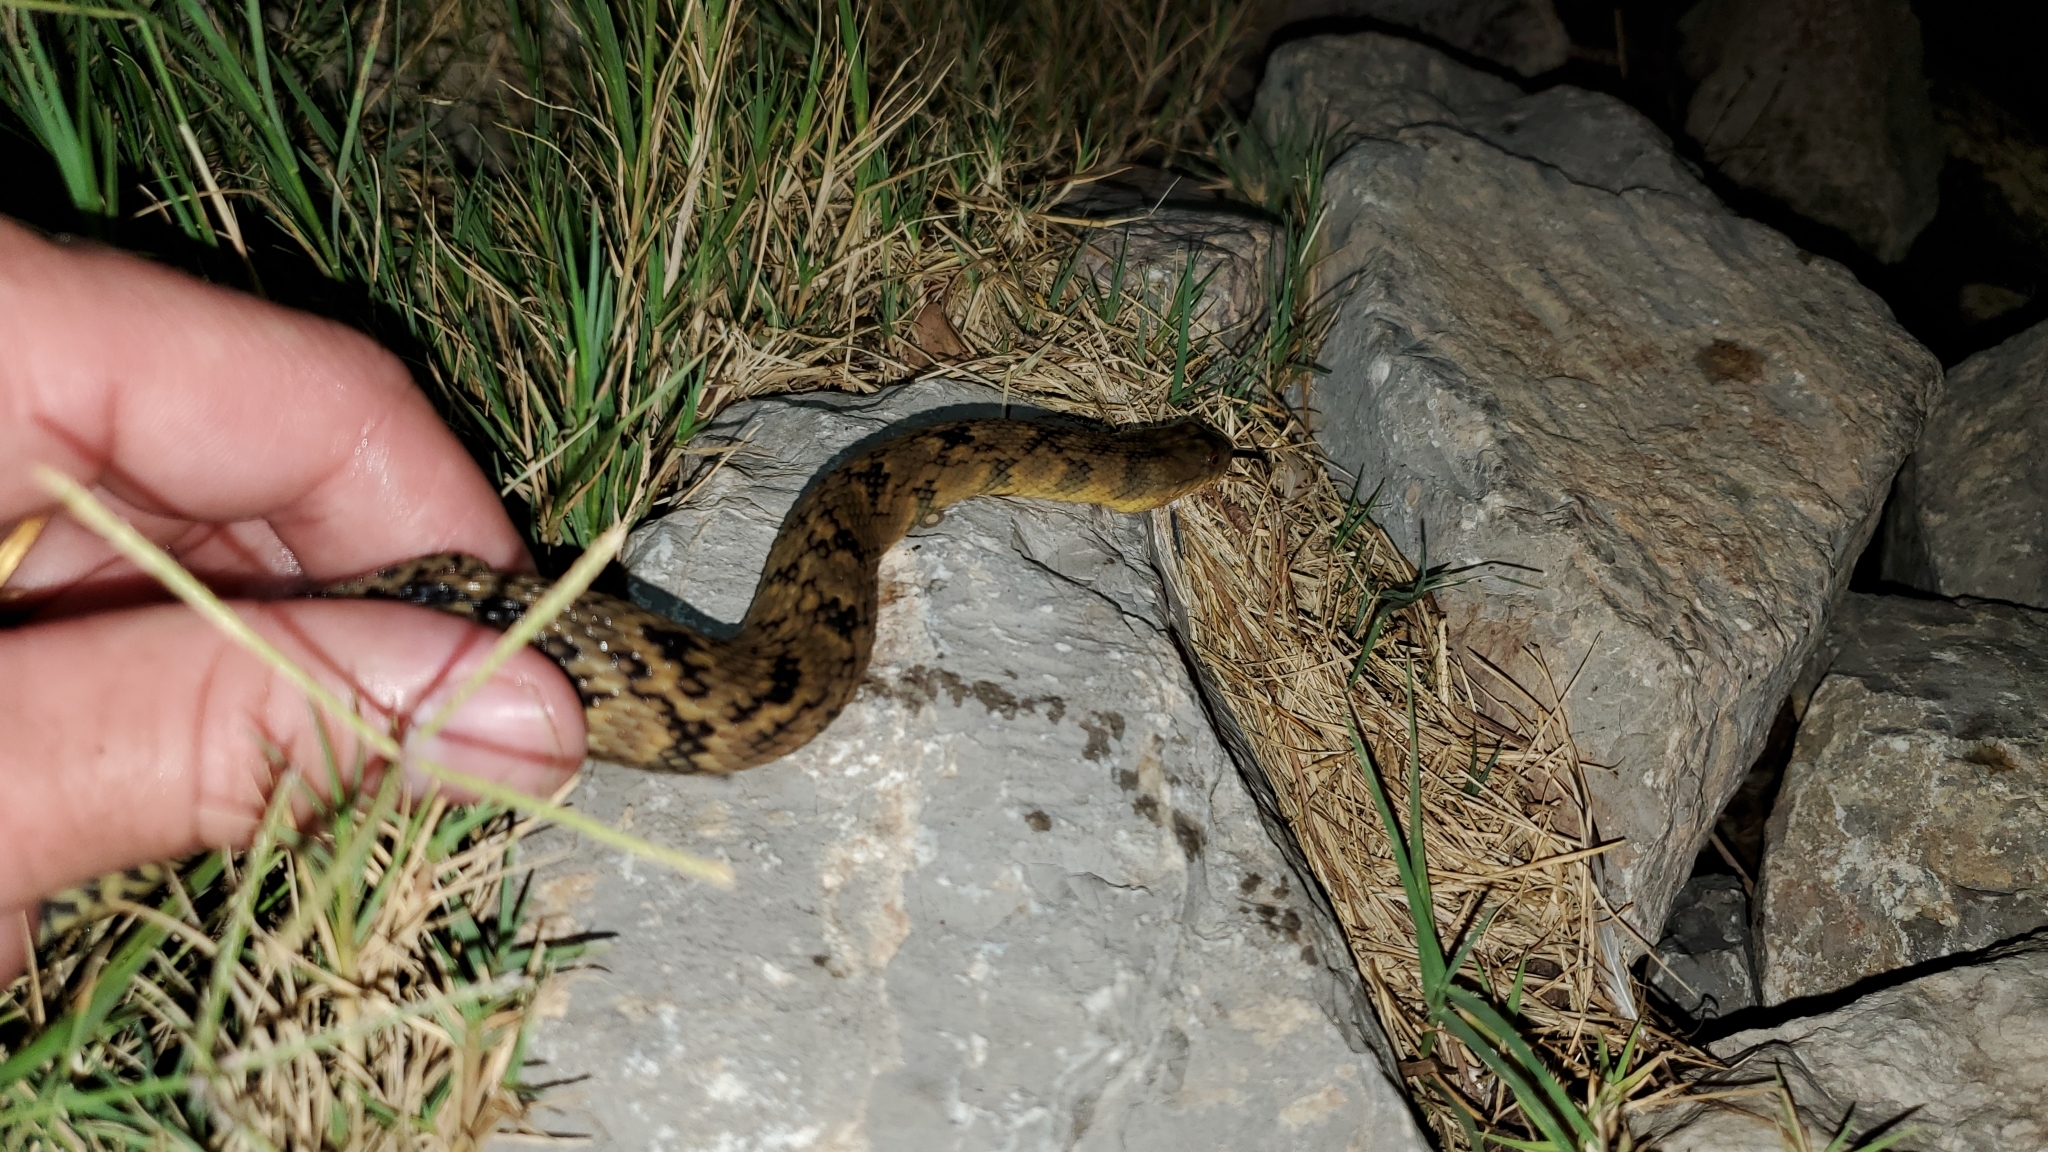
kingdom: Animalia
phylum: Chordata
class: Squamata
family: Colubridae
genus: Nerodia
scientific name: Nerodia rhombifer
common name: Diamondback water snake
